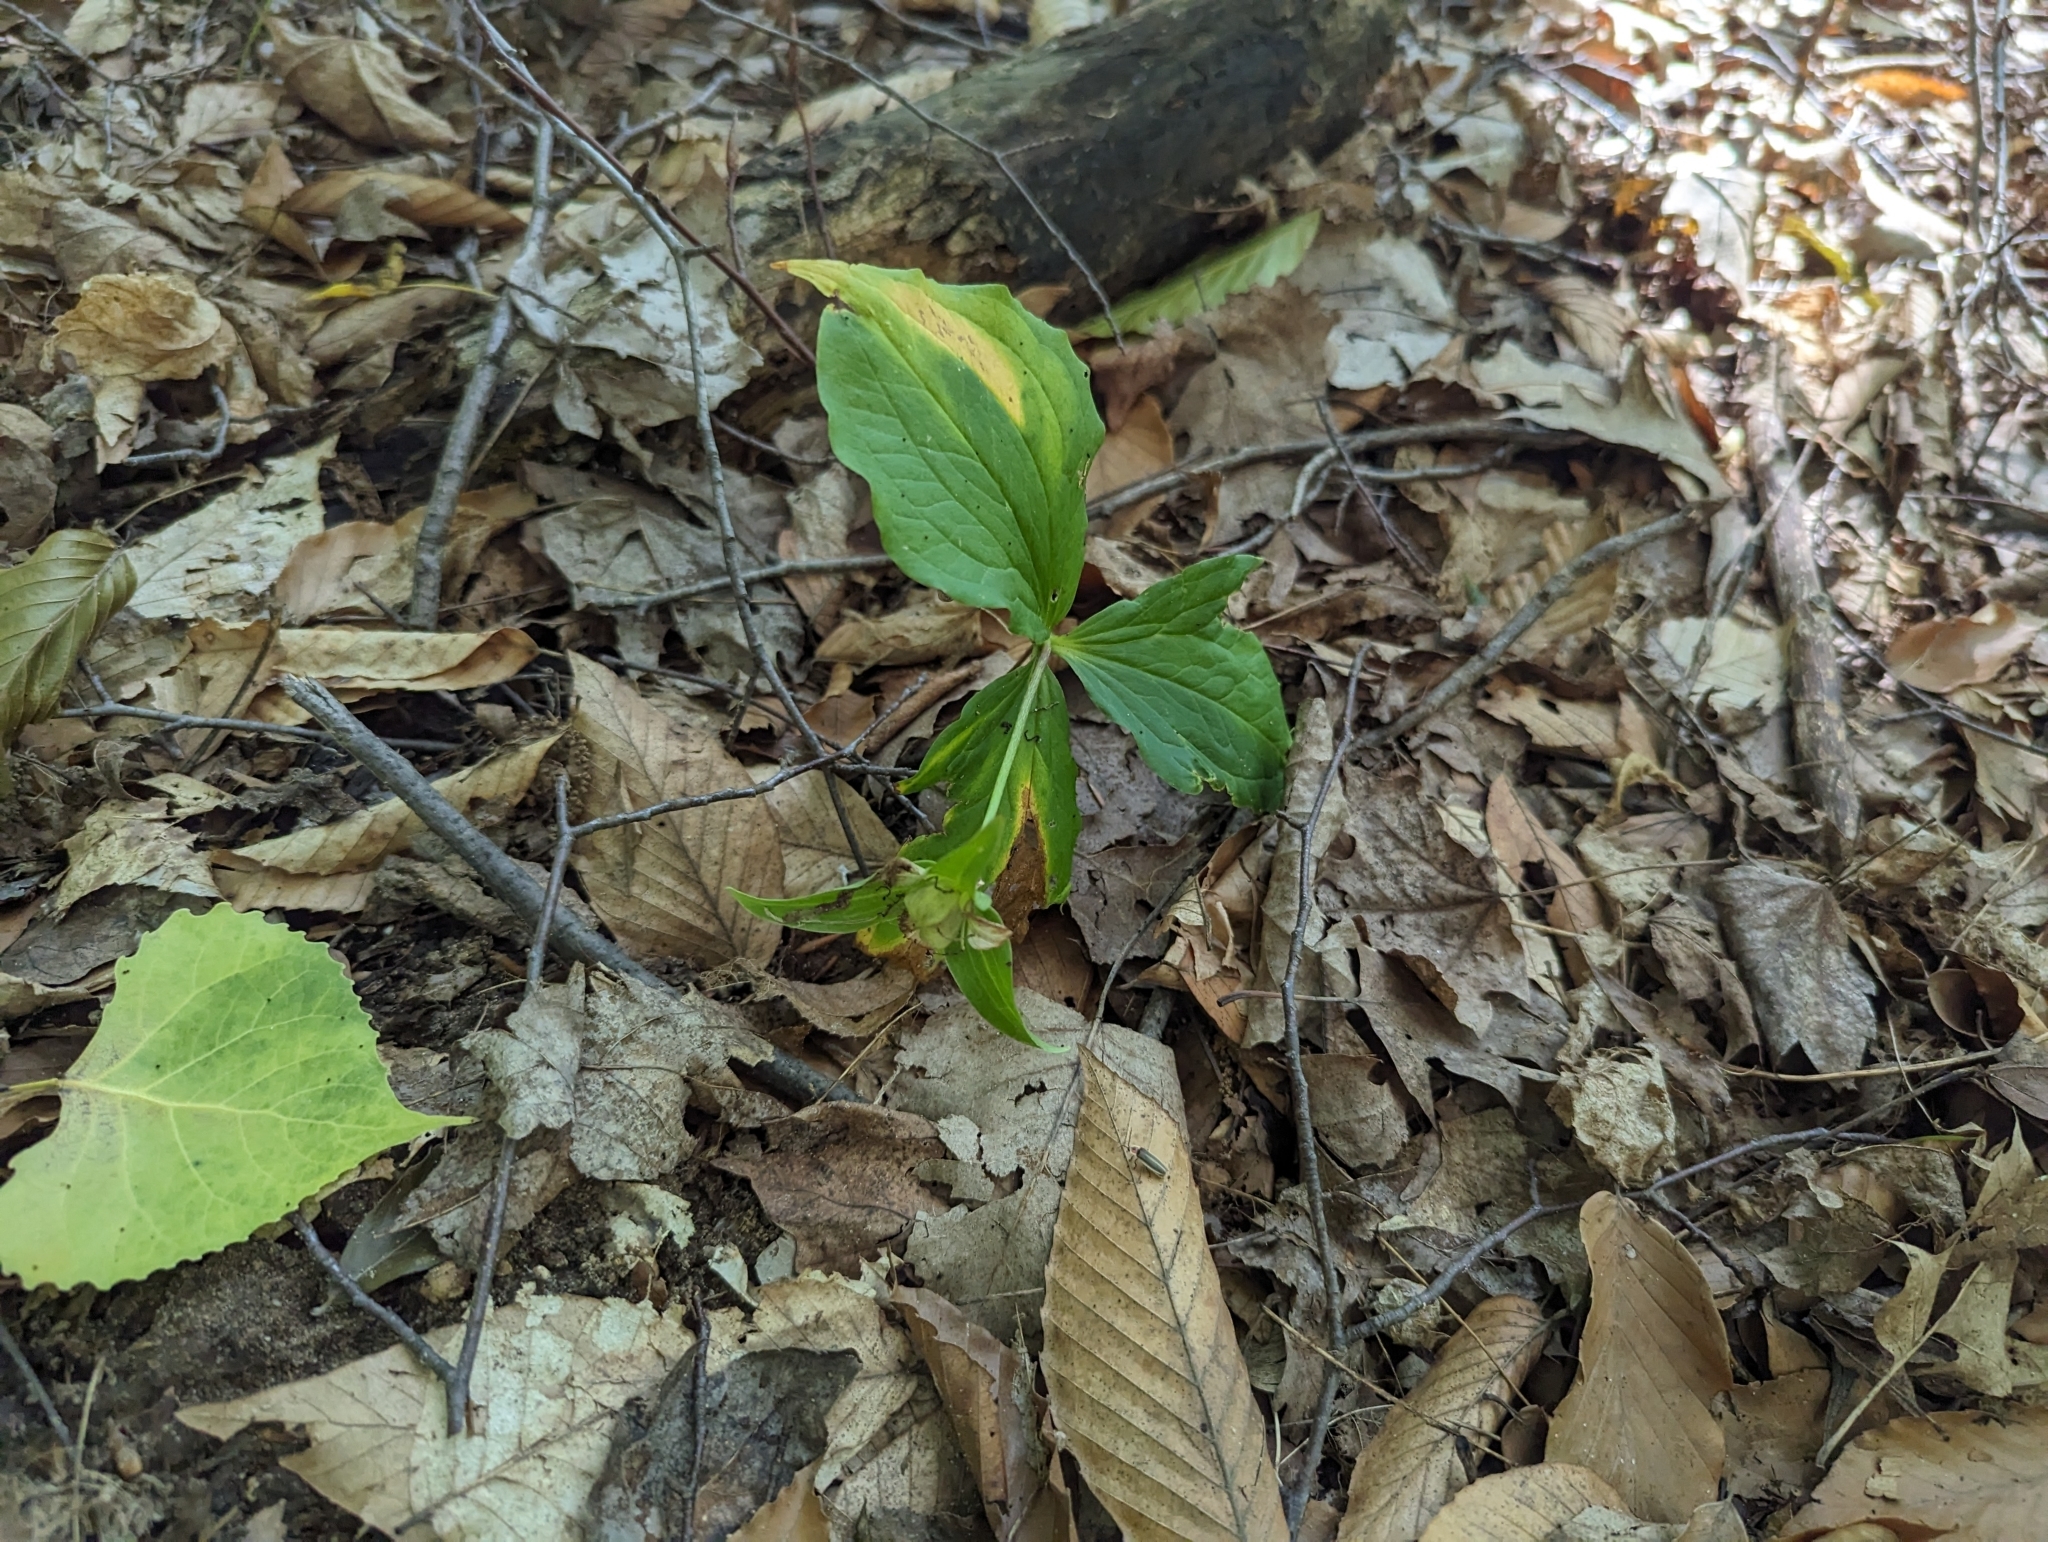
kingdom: Plantae
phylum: Tracheophyta
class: Liliopsida
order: Liliales
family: Melanthiaceae
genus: Trillium
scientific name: Trillium grandiflorum
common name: Great white trillium
